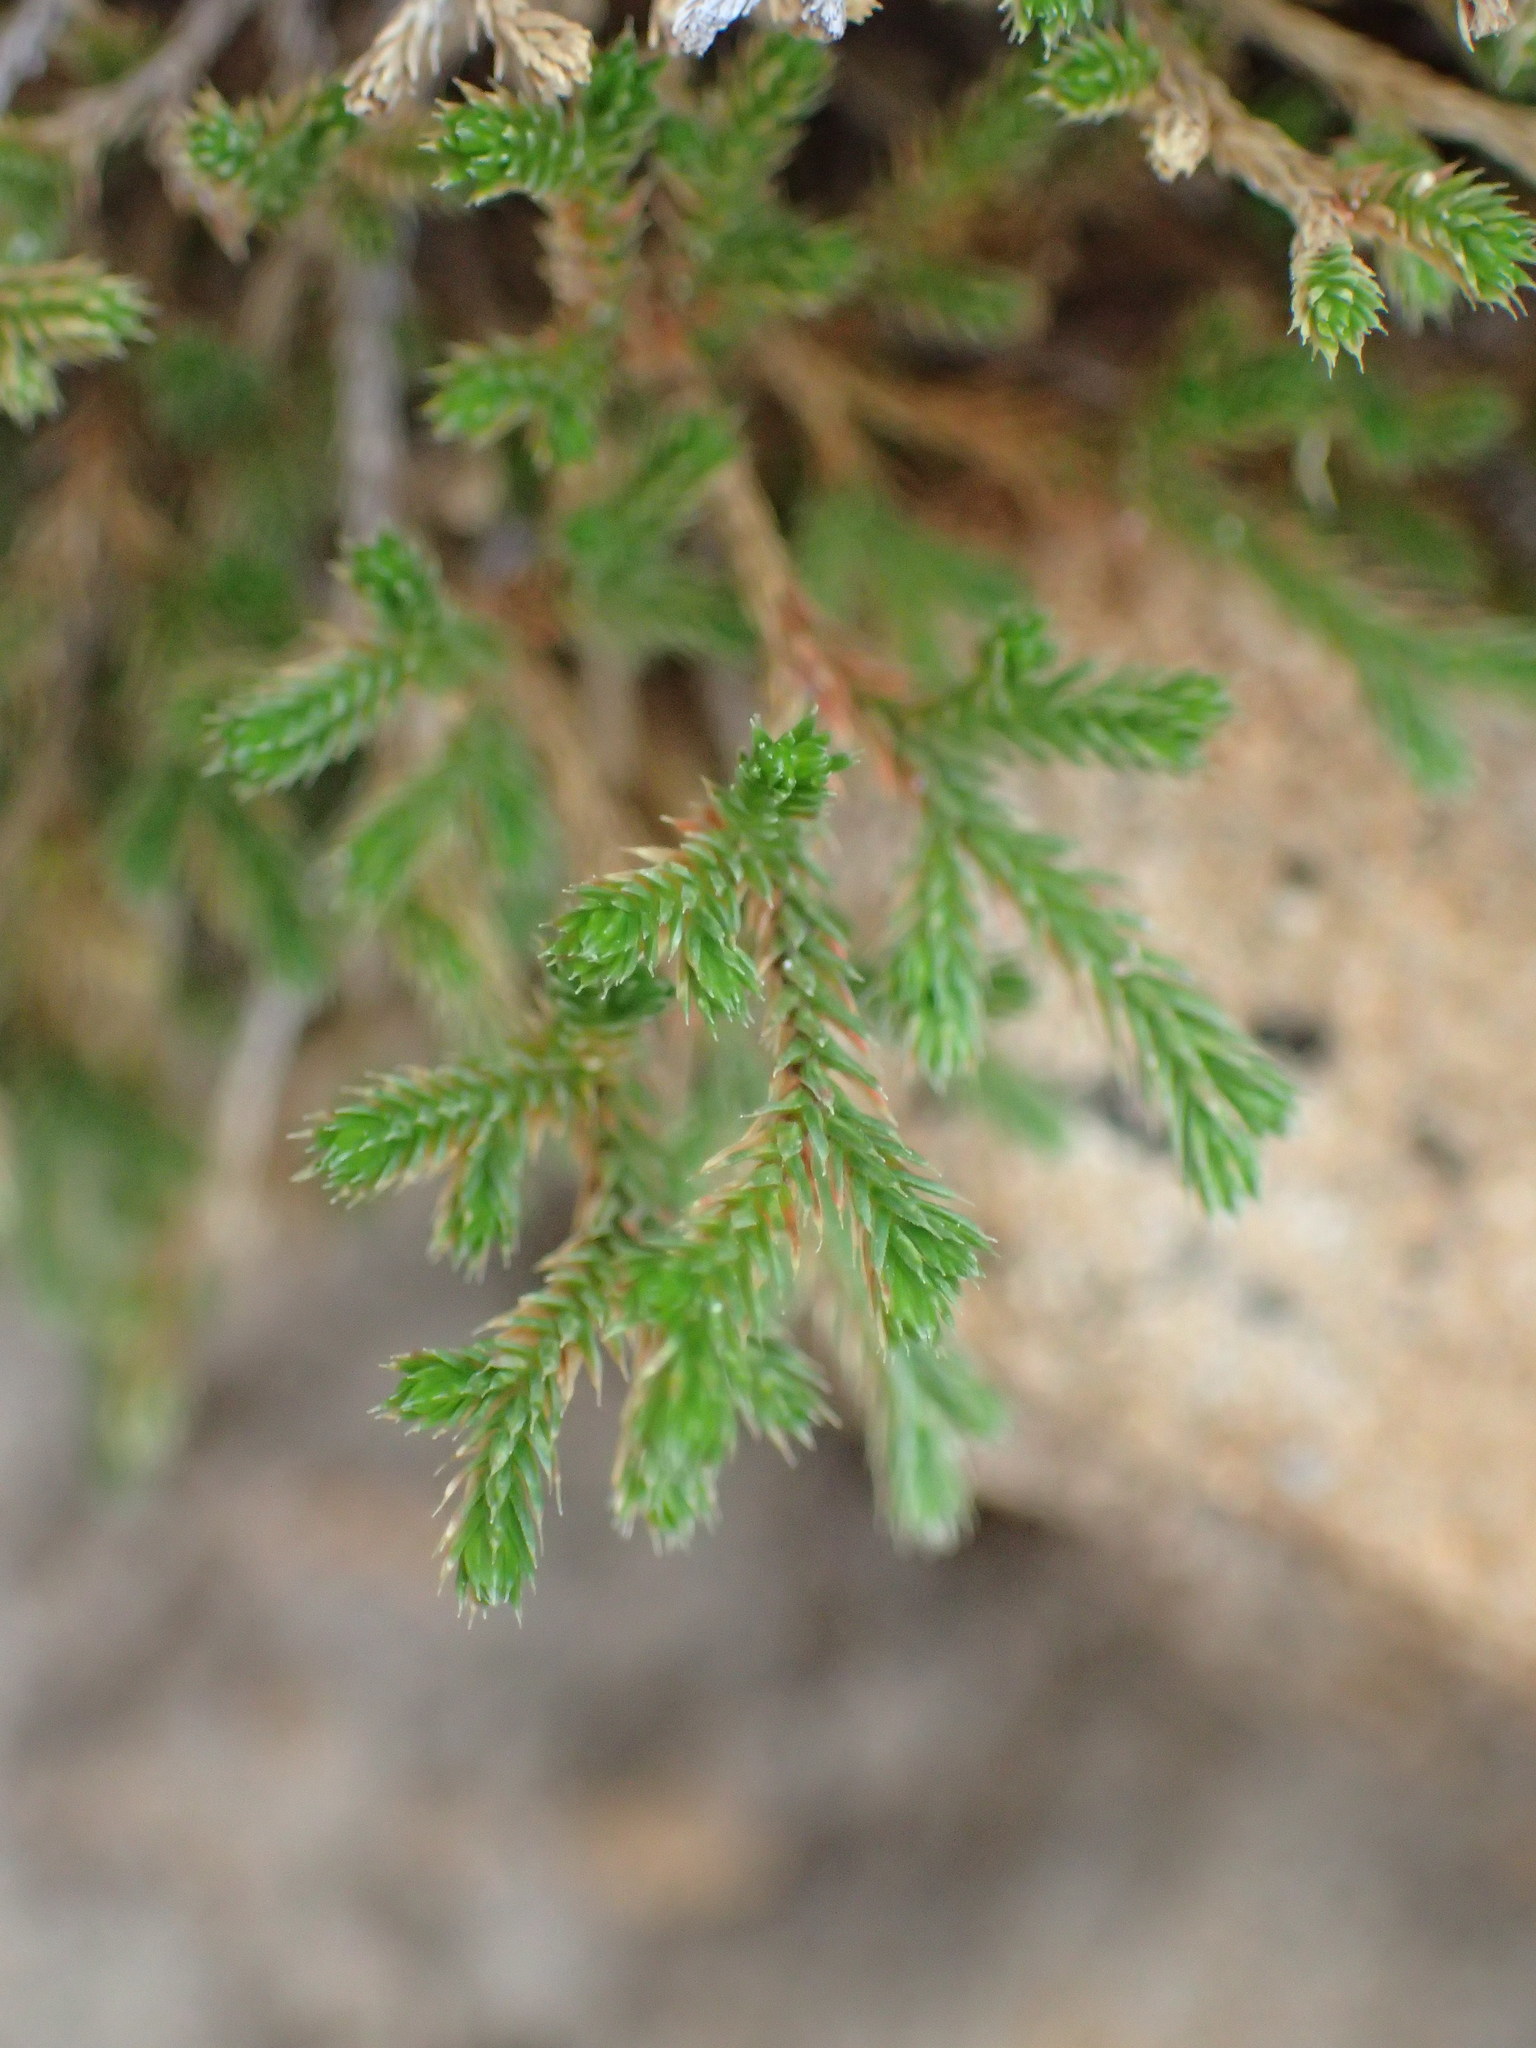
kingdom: Plantae
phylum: Tracheophyta
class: Lycopodiopsida
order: Selaginellales
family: Selaginellaceae
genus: Selaginella
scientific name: Selaginella bigelovii
